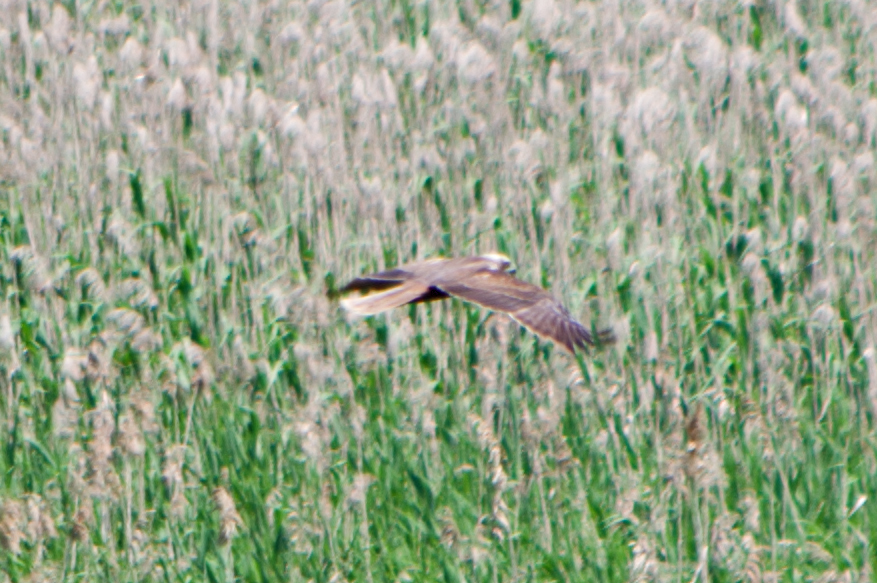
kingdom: Animalia
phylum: Chordata
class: Aves
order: Accipitriformes
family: Accipitridae
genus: Circus
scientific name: Circus aeruginosus
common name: Western marsh harrier
